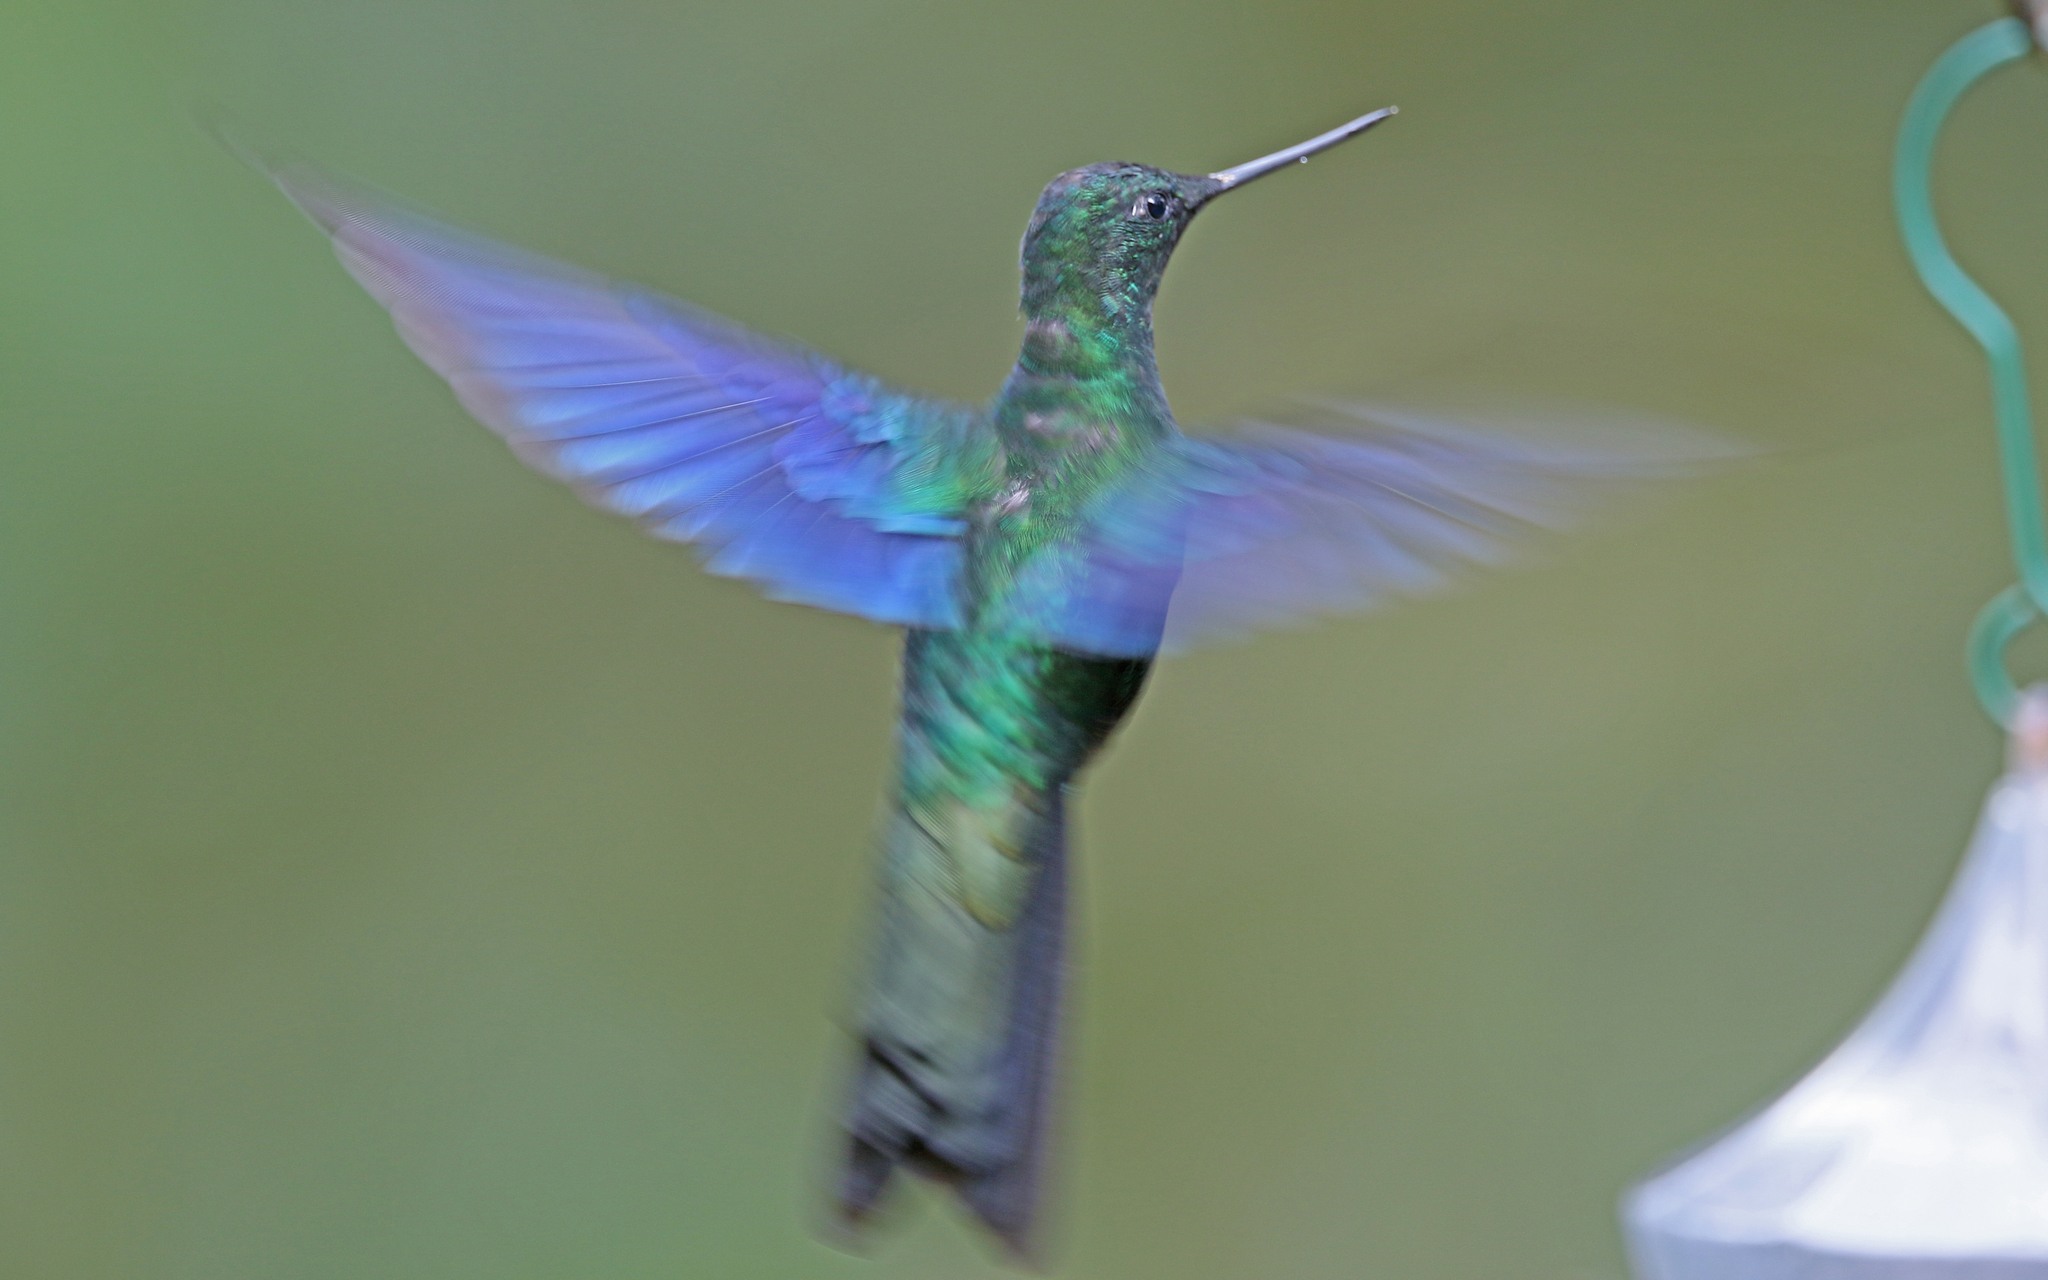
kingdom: Animalia
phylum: Chordata
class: Aves
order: Apodiformes
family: Trochilidae
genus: Pterophanes
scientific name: Pterophanes cyanopterus
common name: Great sapphirewing
